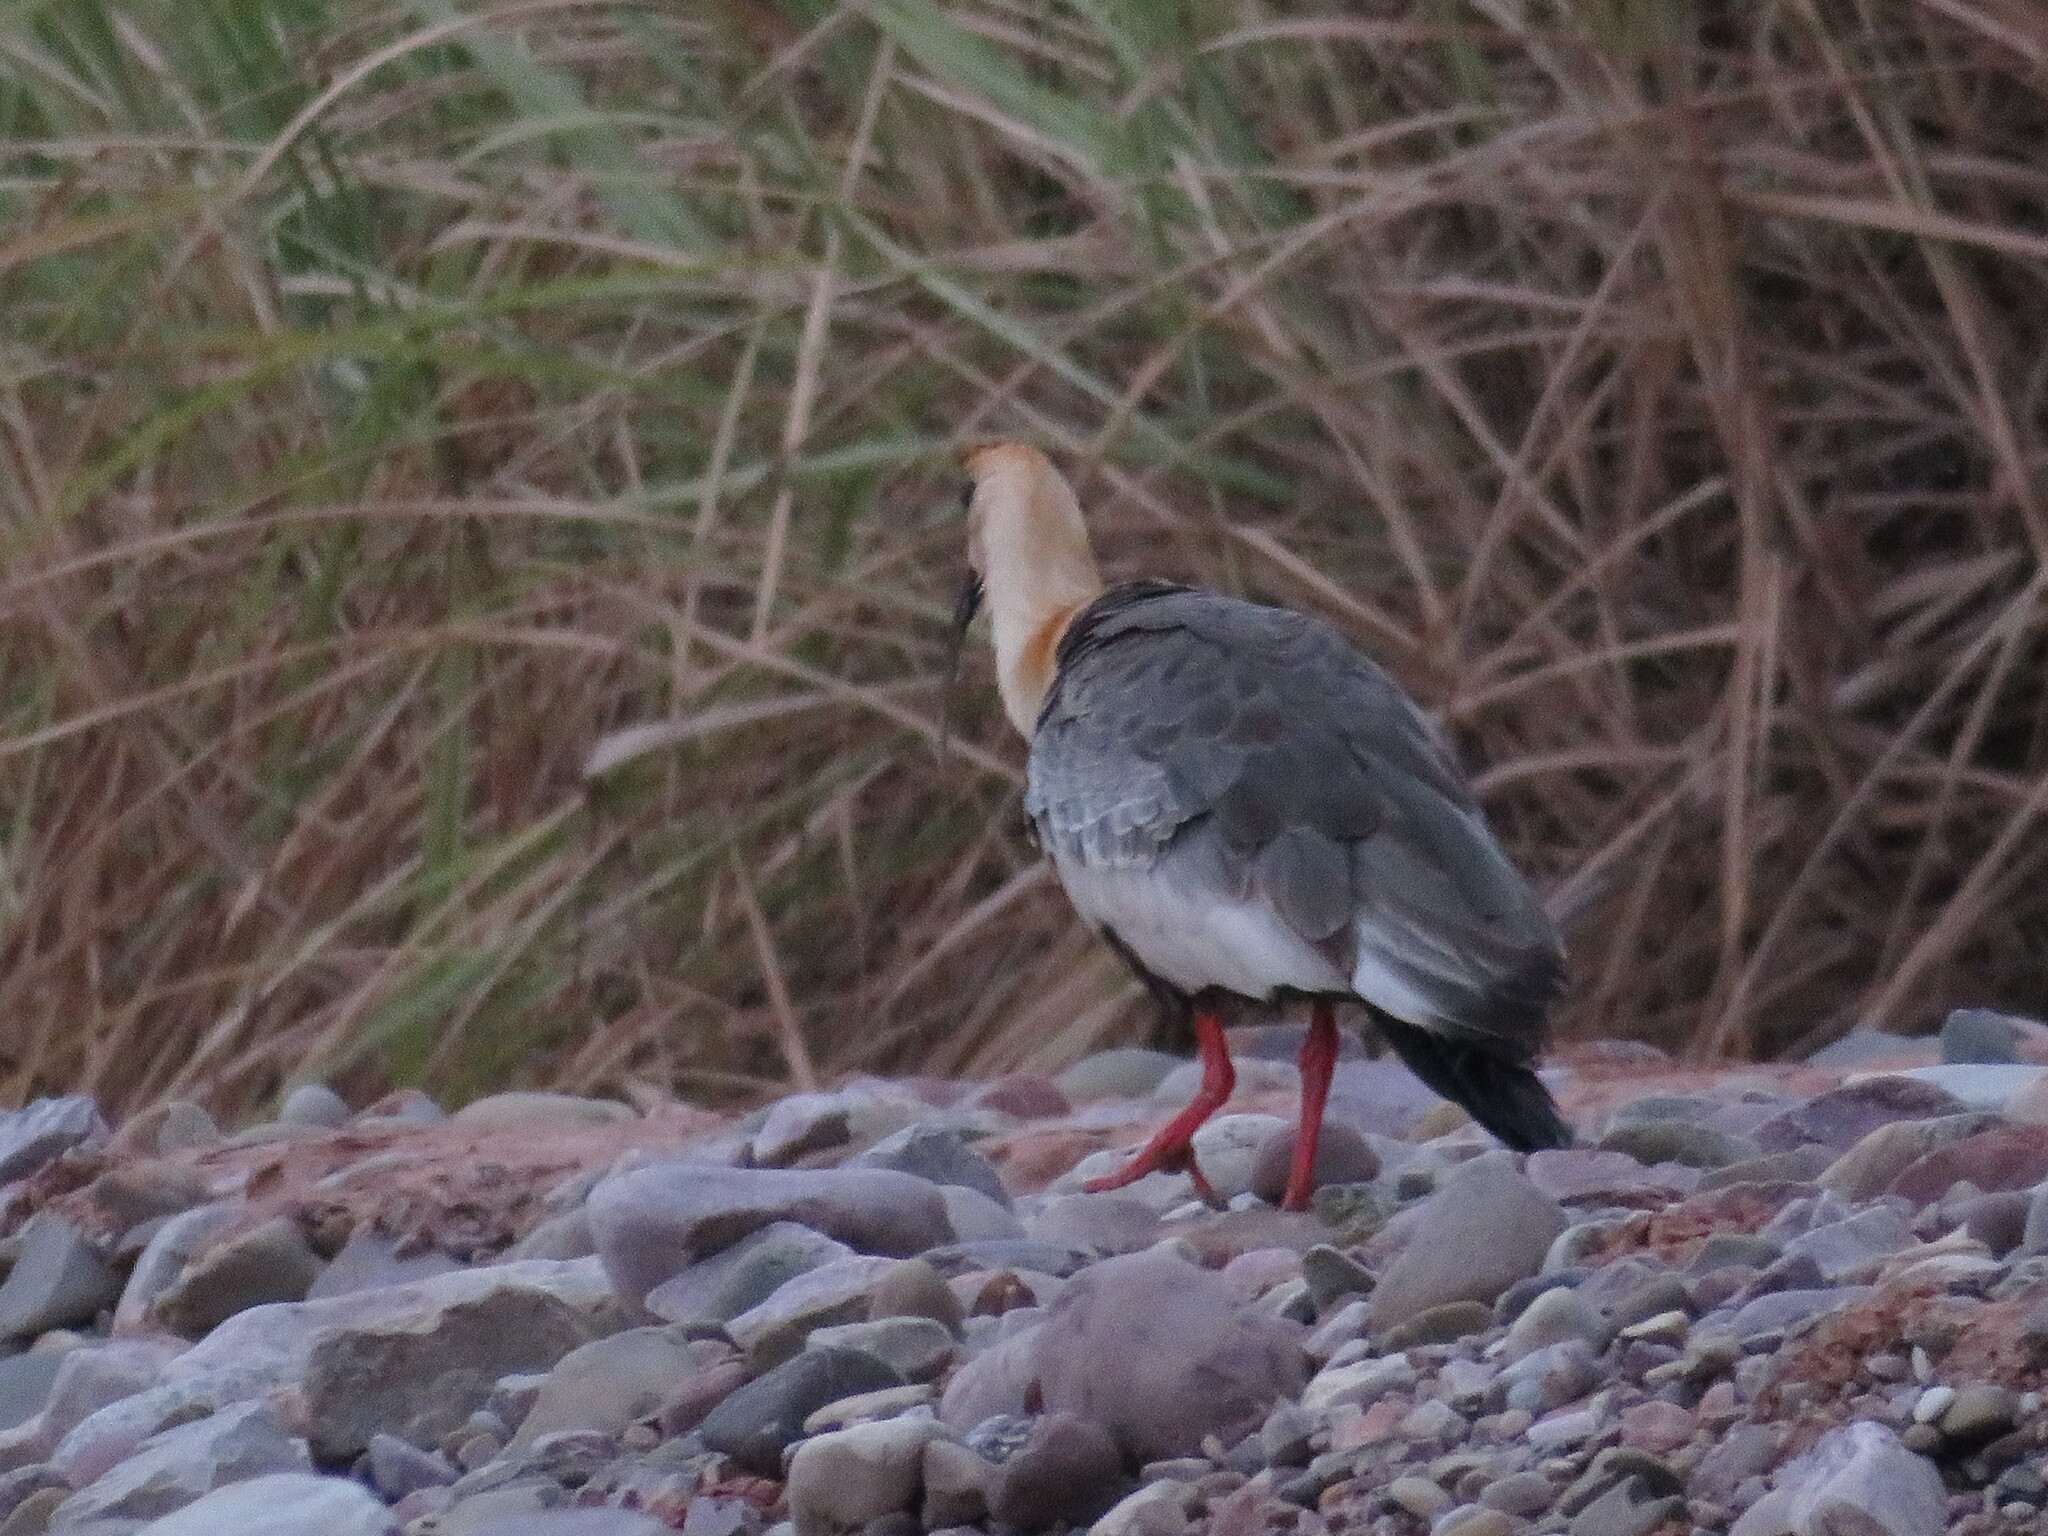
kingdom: Animalia
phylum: Chordata
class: Aves
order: Pelecaniformes
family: Threskiornithidae
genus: Theristicus
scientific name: Theristicus caudatus
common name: Buff-necked ibis
